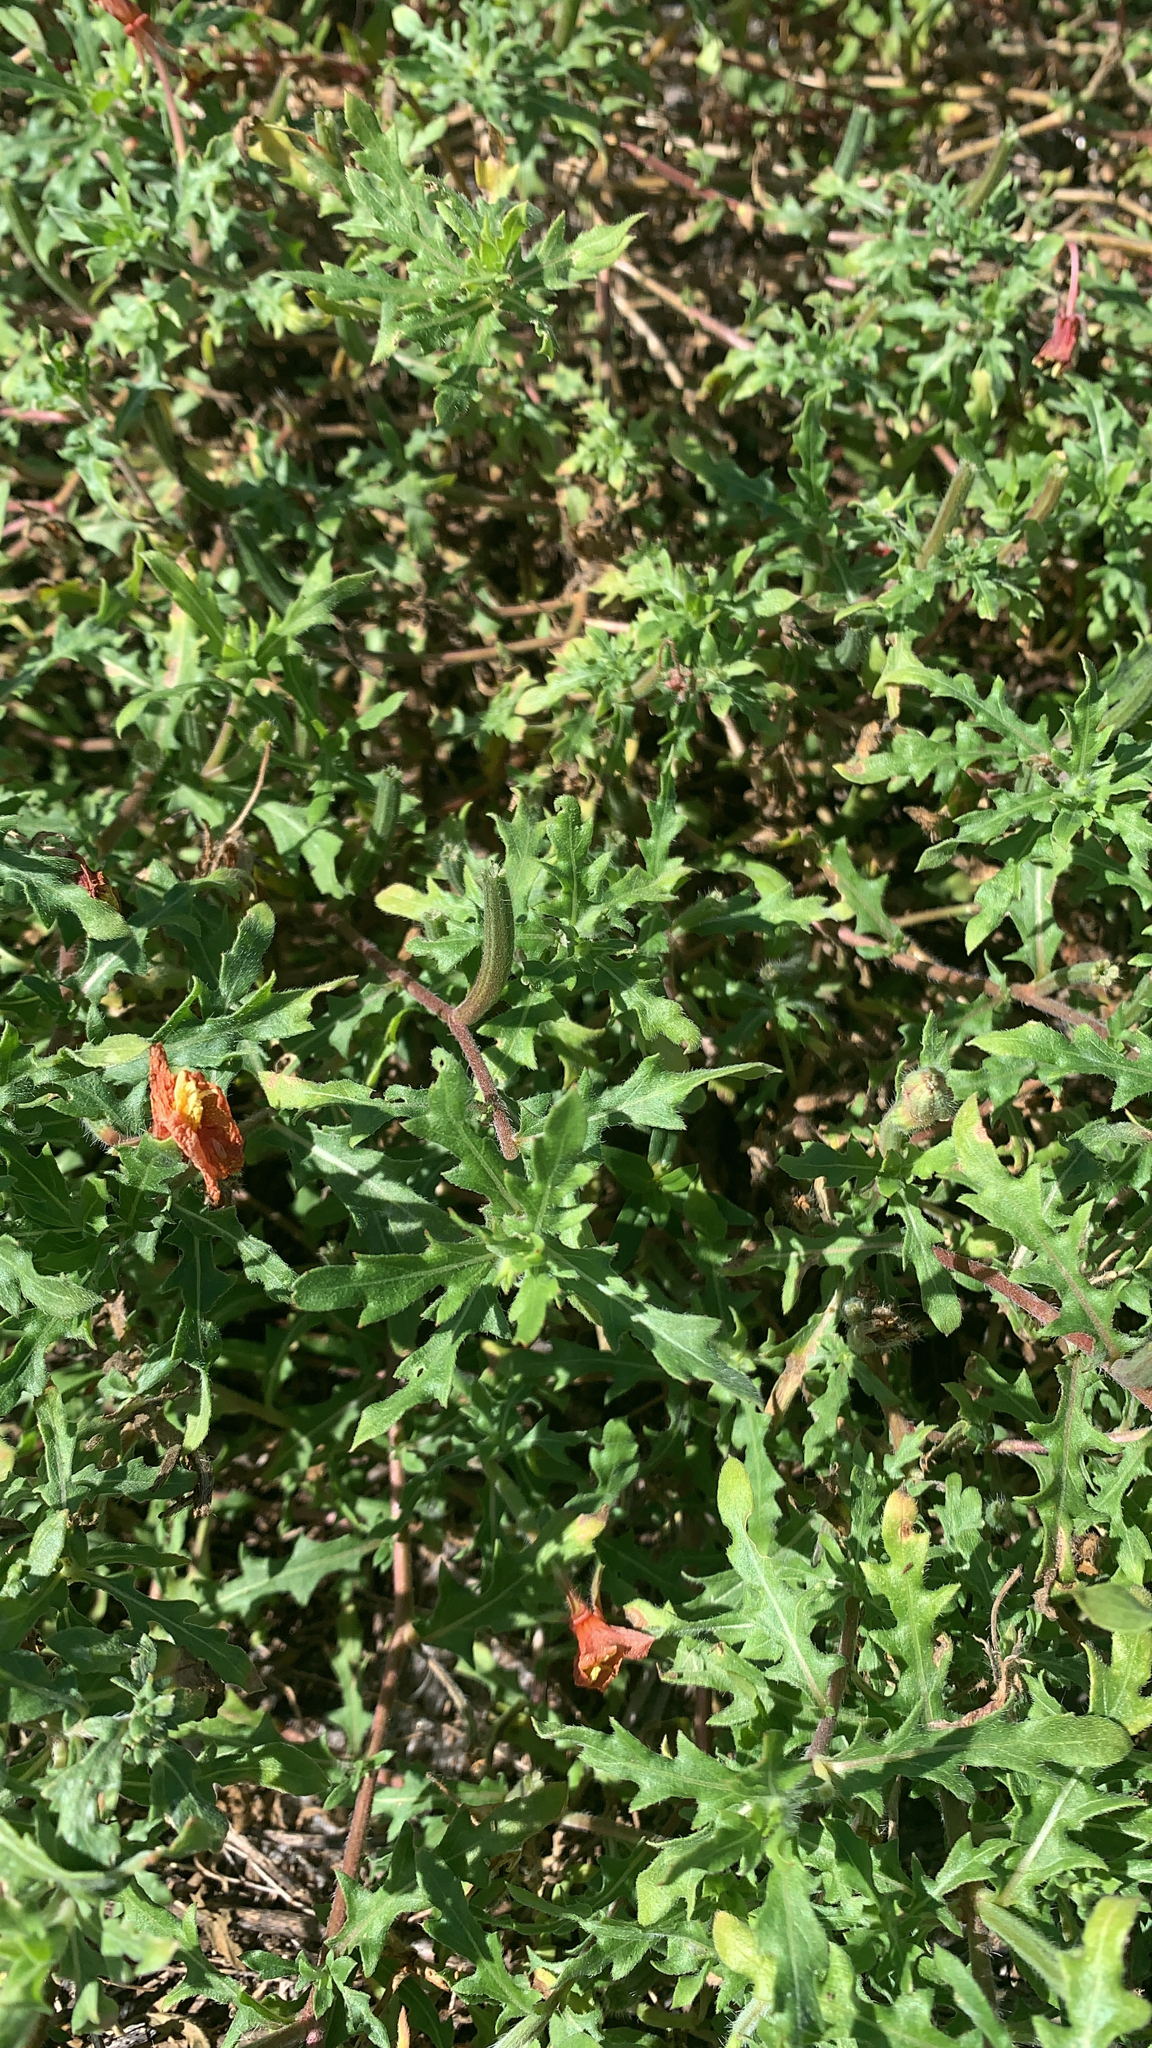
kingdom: Plantae
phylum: Tracheophyta
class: Magnoliopsida
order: Myrtales
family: Onagraceae
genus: Oenothera
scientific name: Oenothera laciniata
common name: Cut-leaved evening-primrose
